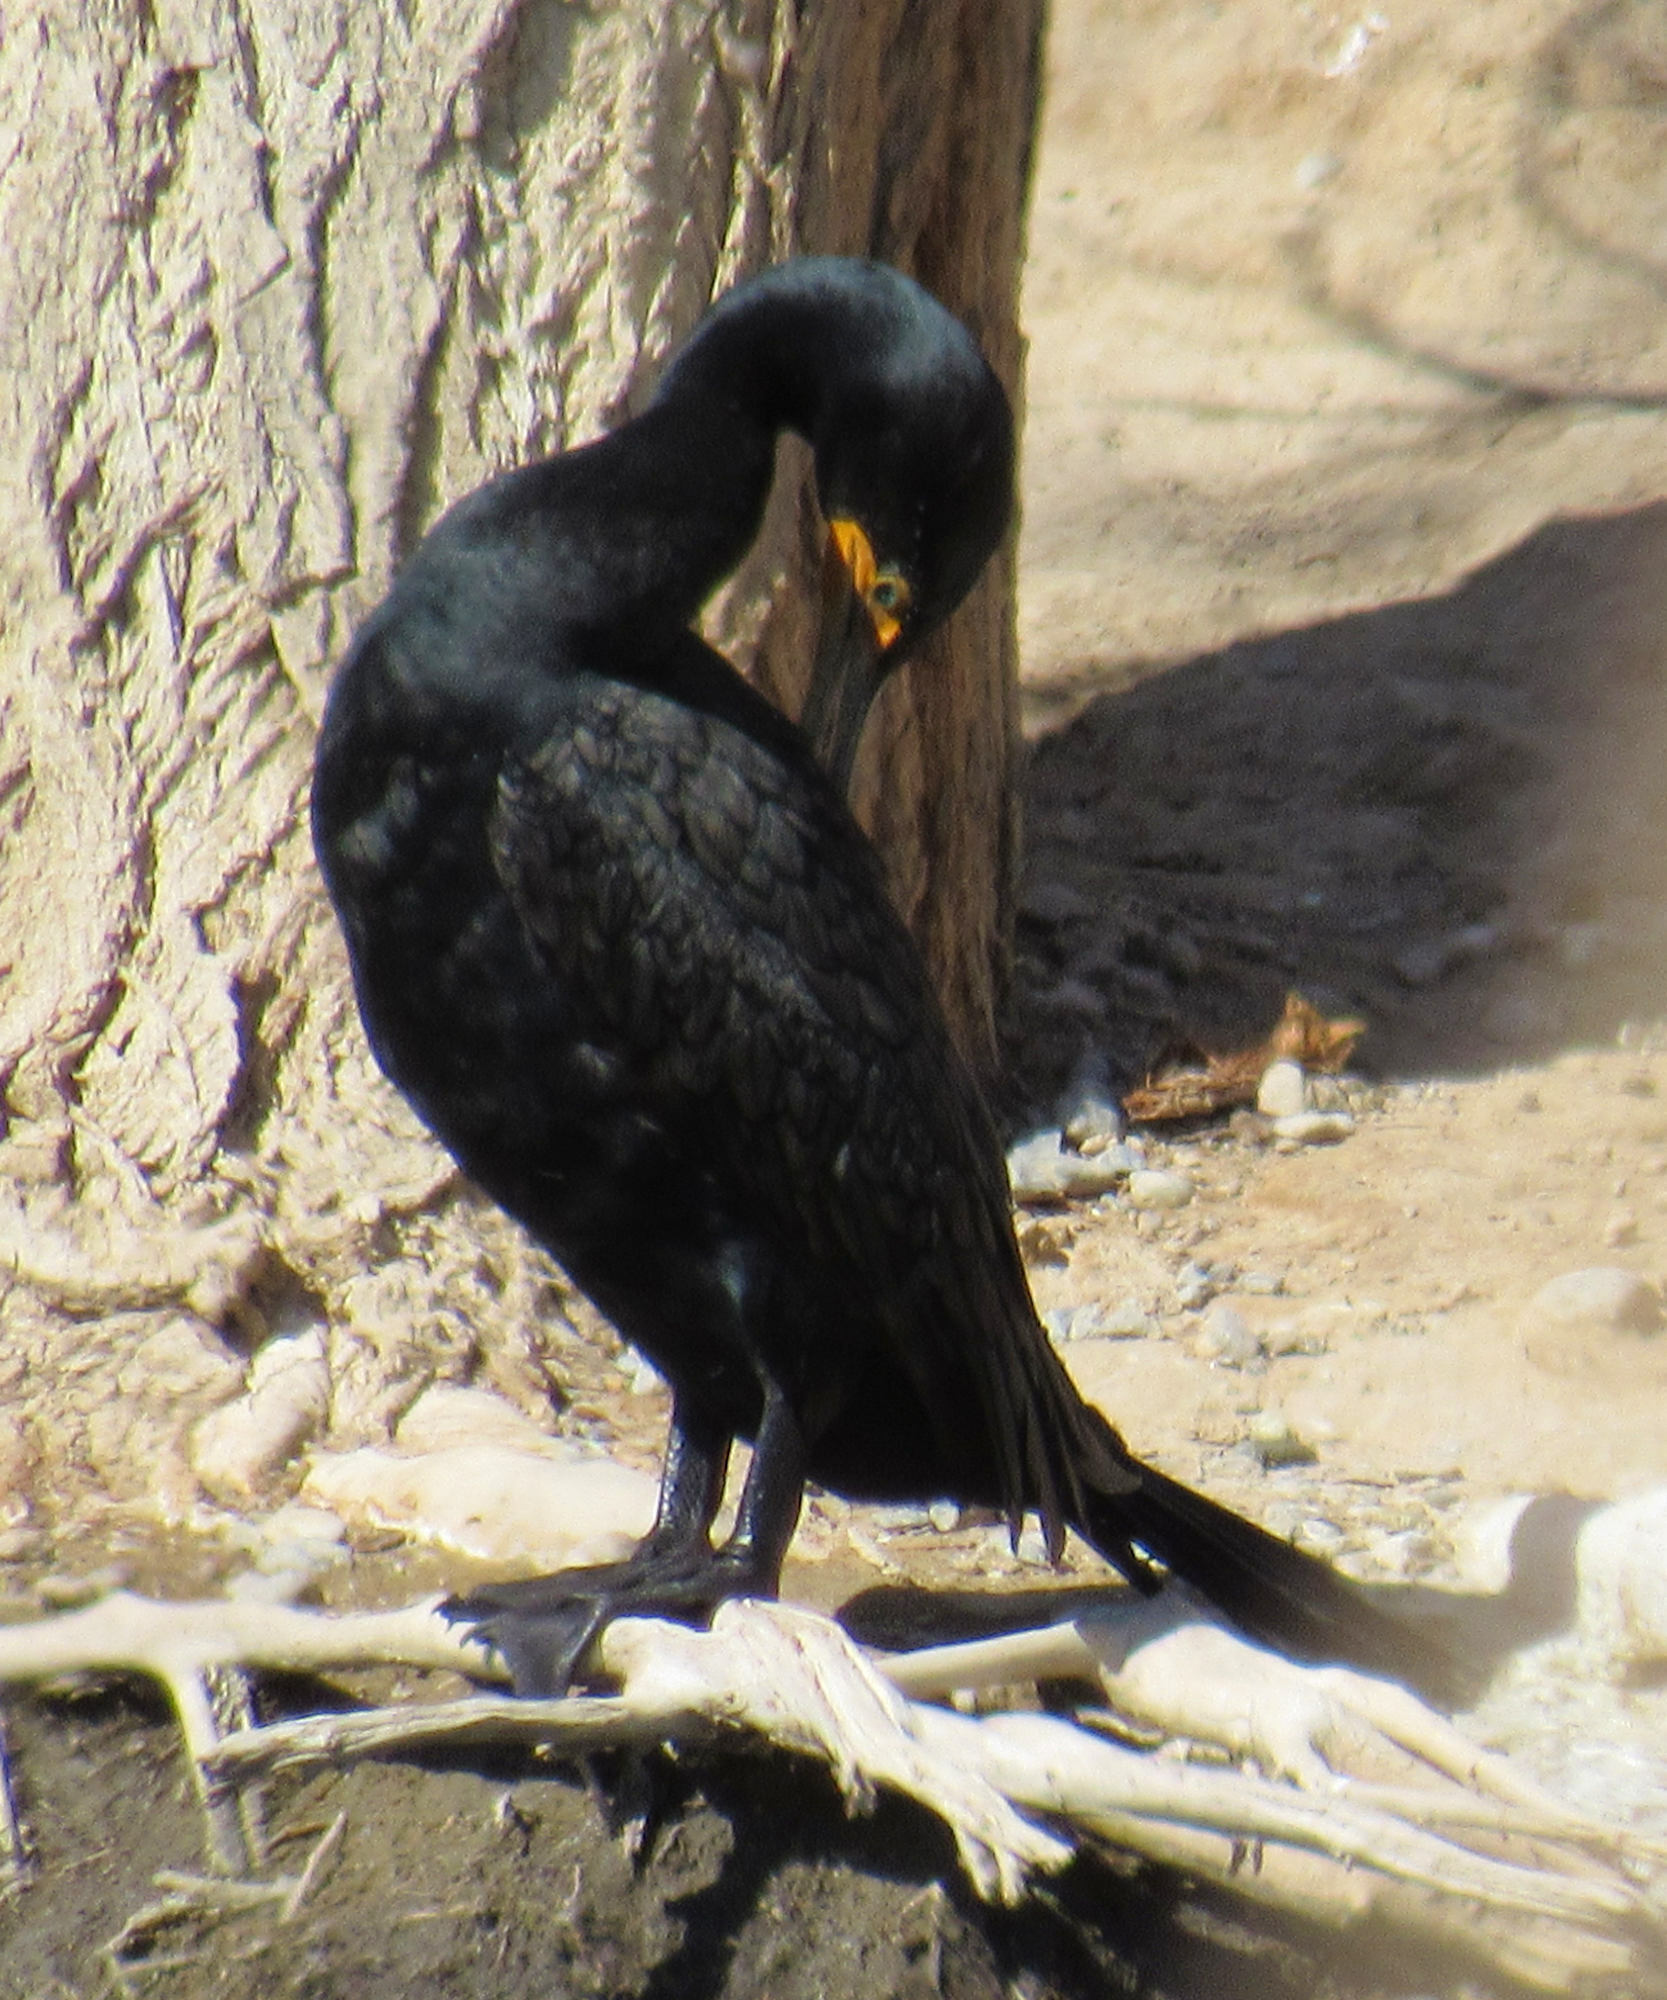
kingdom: Animalia
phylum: Chordata
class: Aves
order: Suliformes
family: Phalacrocoracidae
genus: Phalacrocorax
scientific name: Phalacrocorax auritus
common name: Double-crested cormorant
